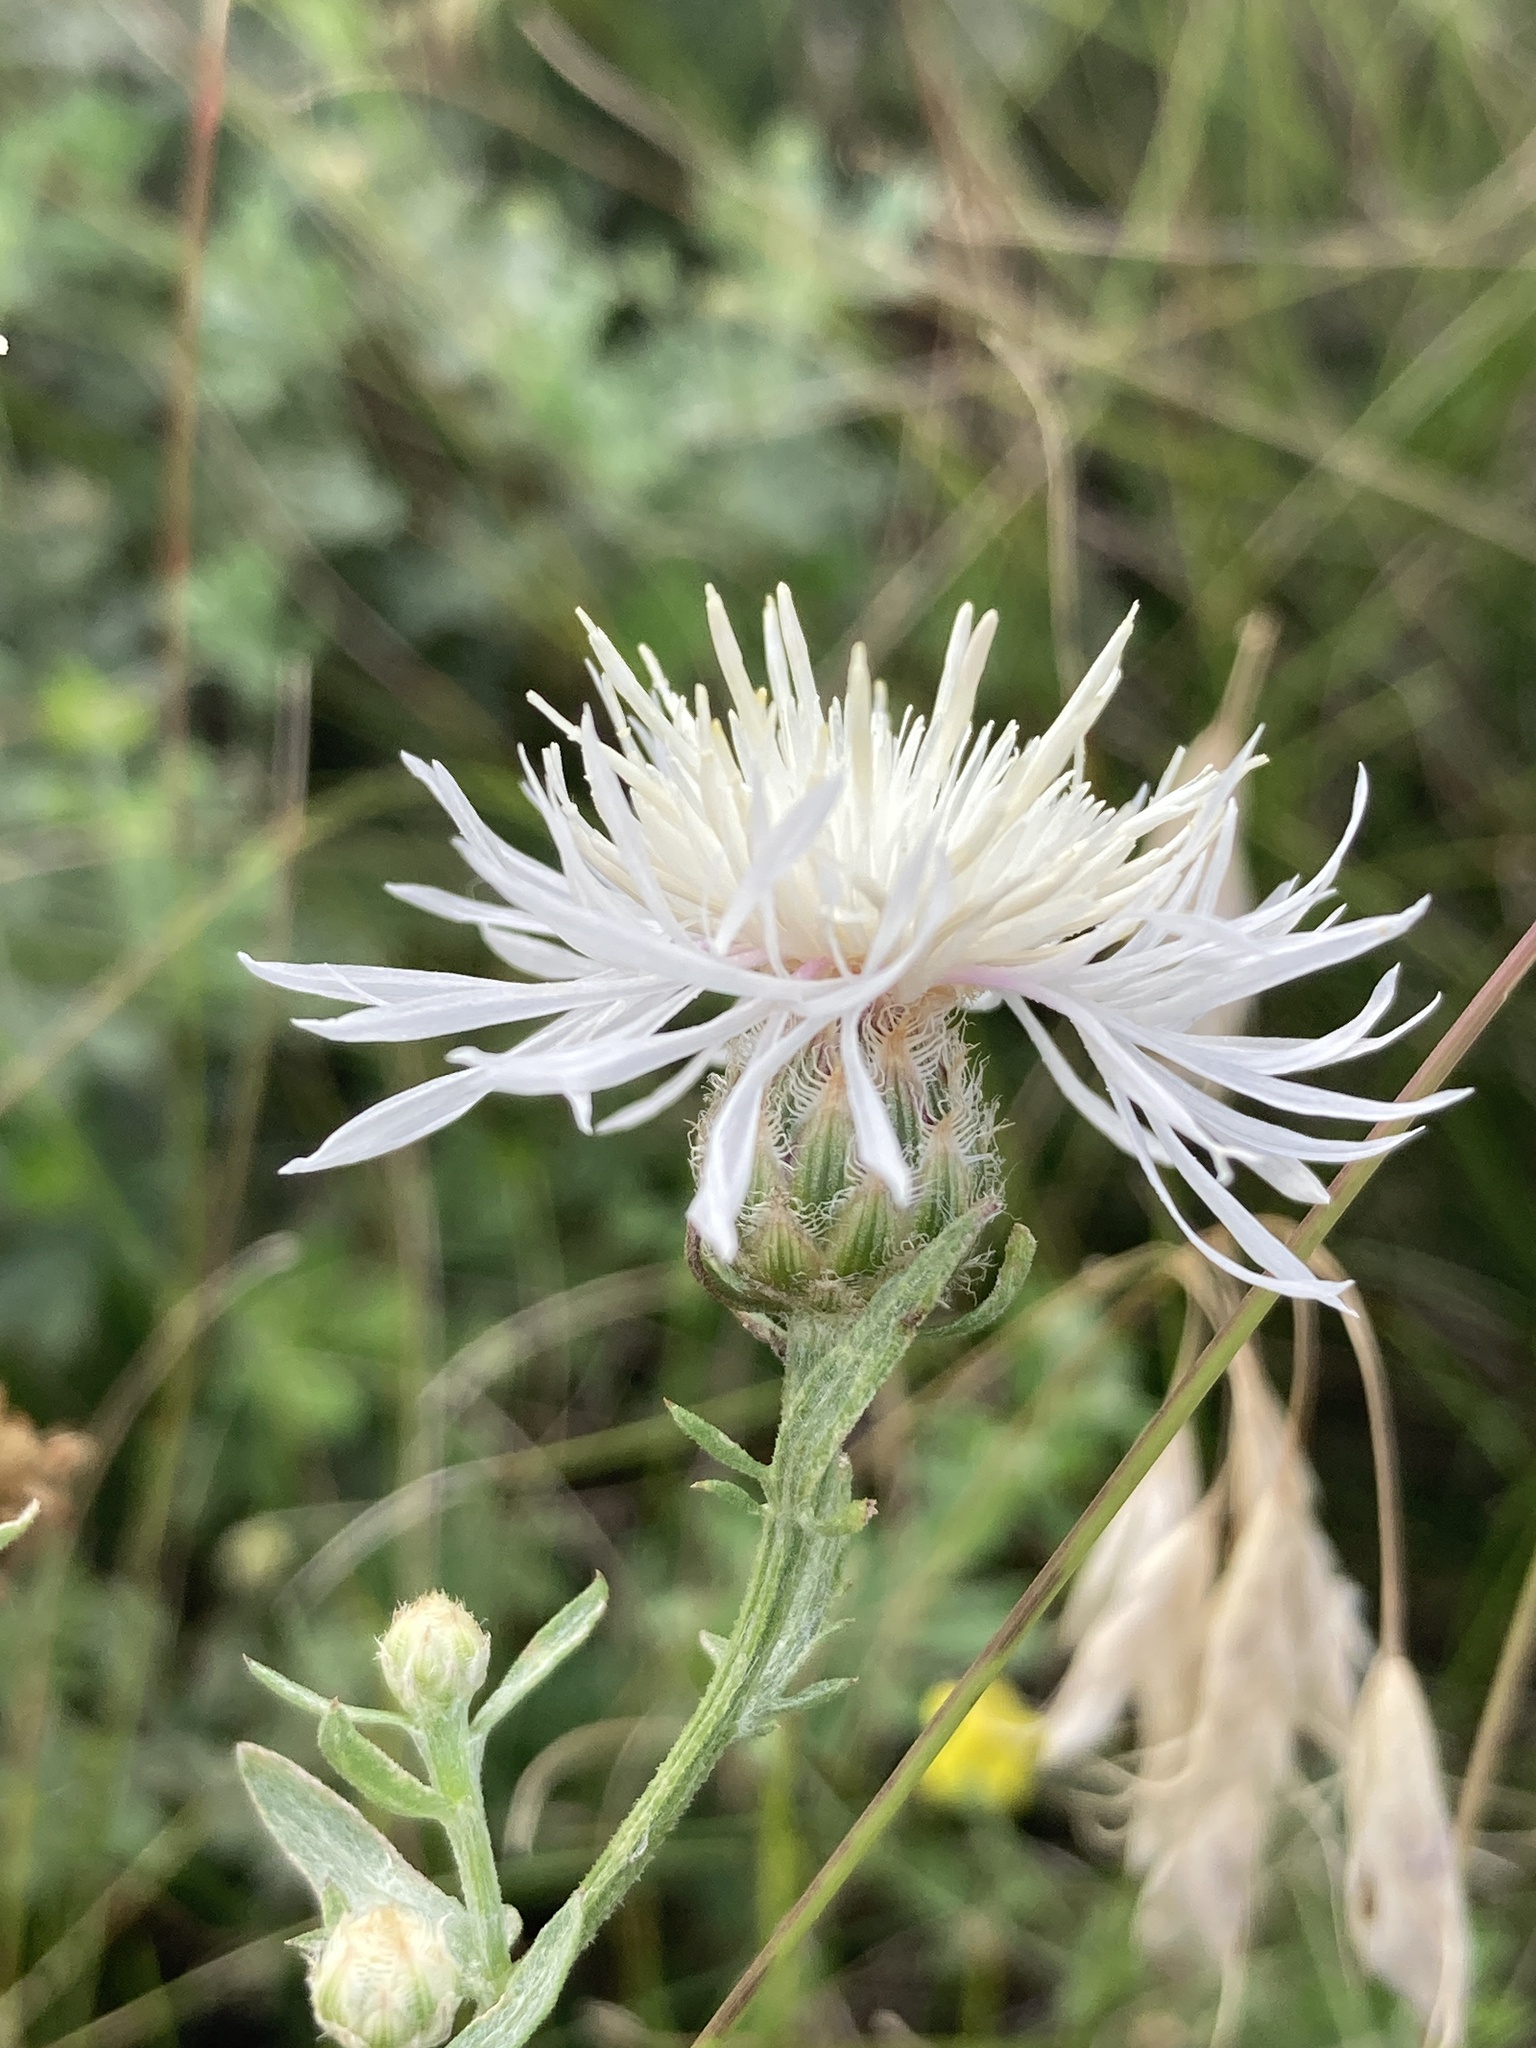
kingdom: Plantae
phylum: Tracheophyta
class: Magnoliopsida
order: Asterales
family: Asteraceae
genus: Centaurea
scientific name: Centaurea diffusa
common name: Diffuse knapweed
